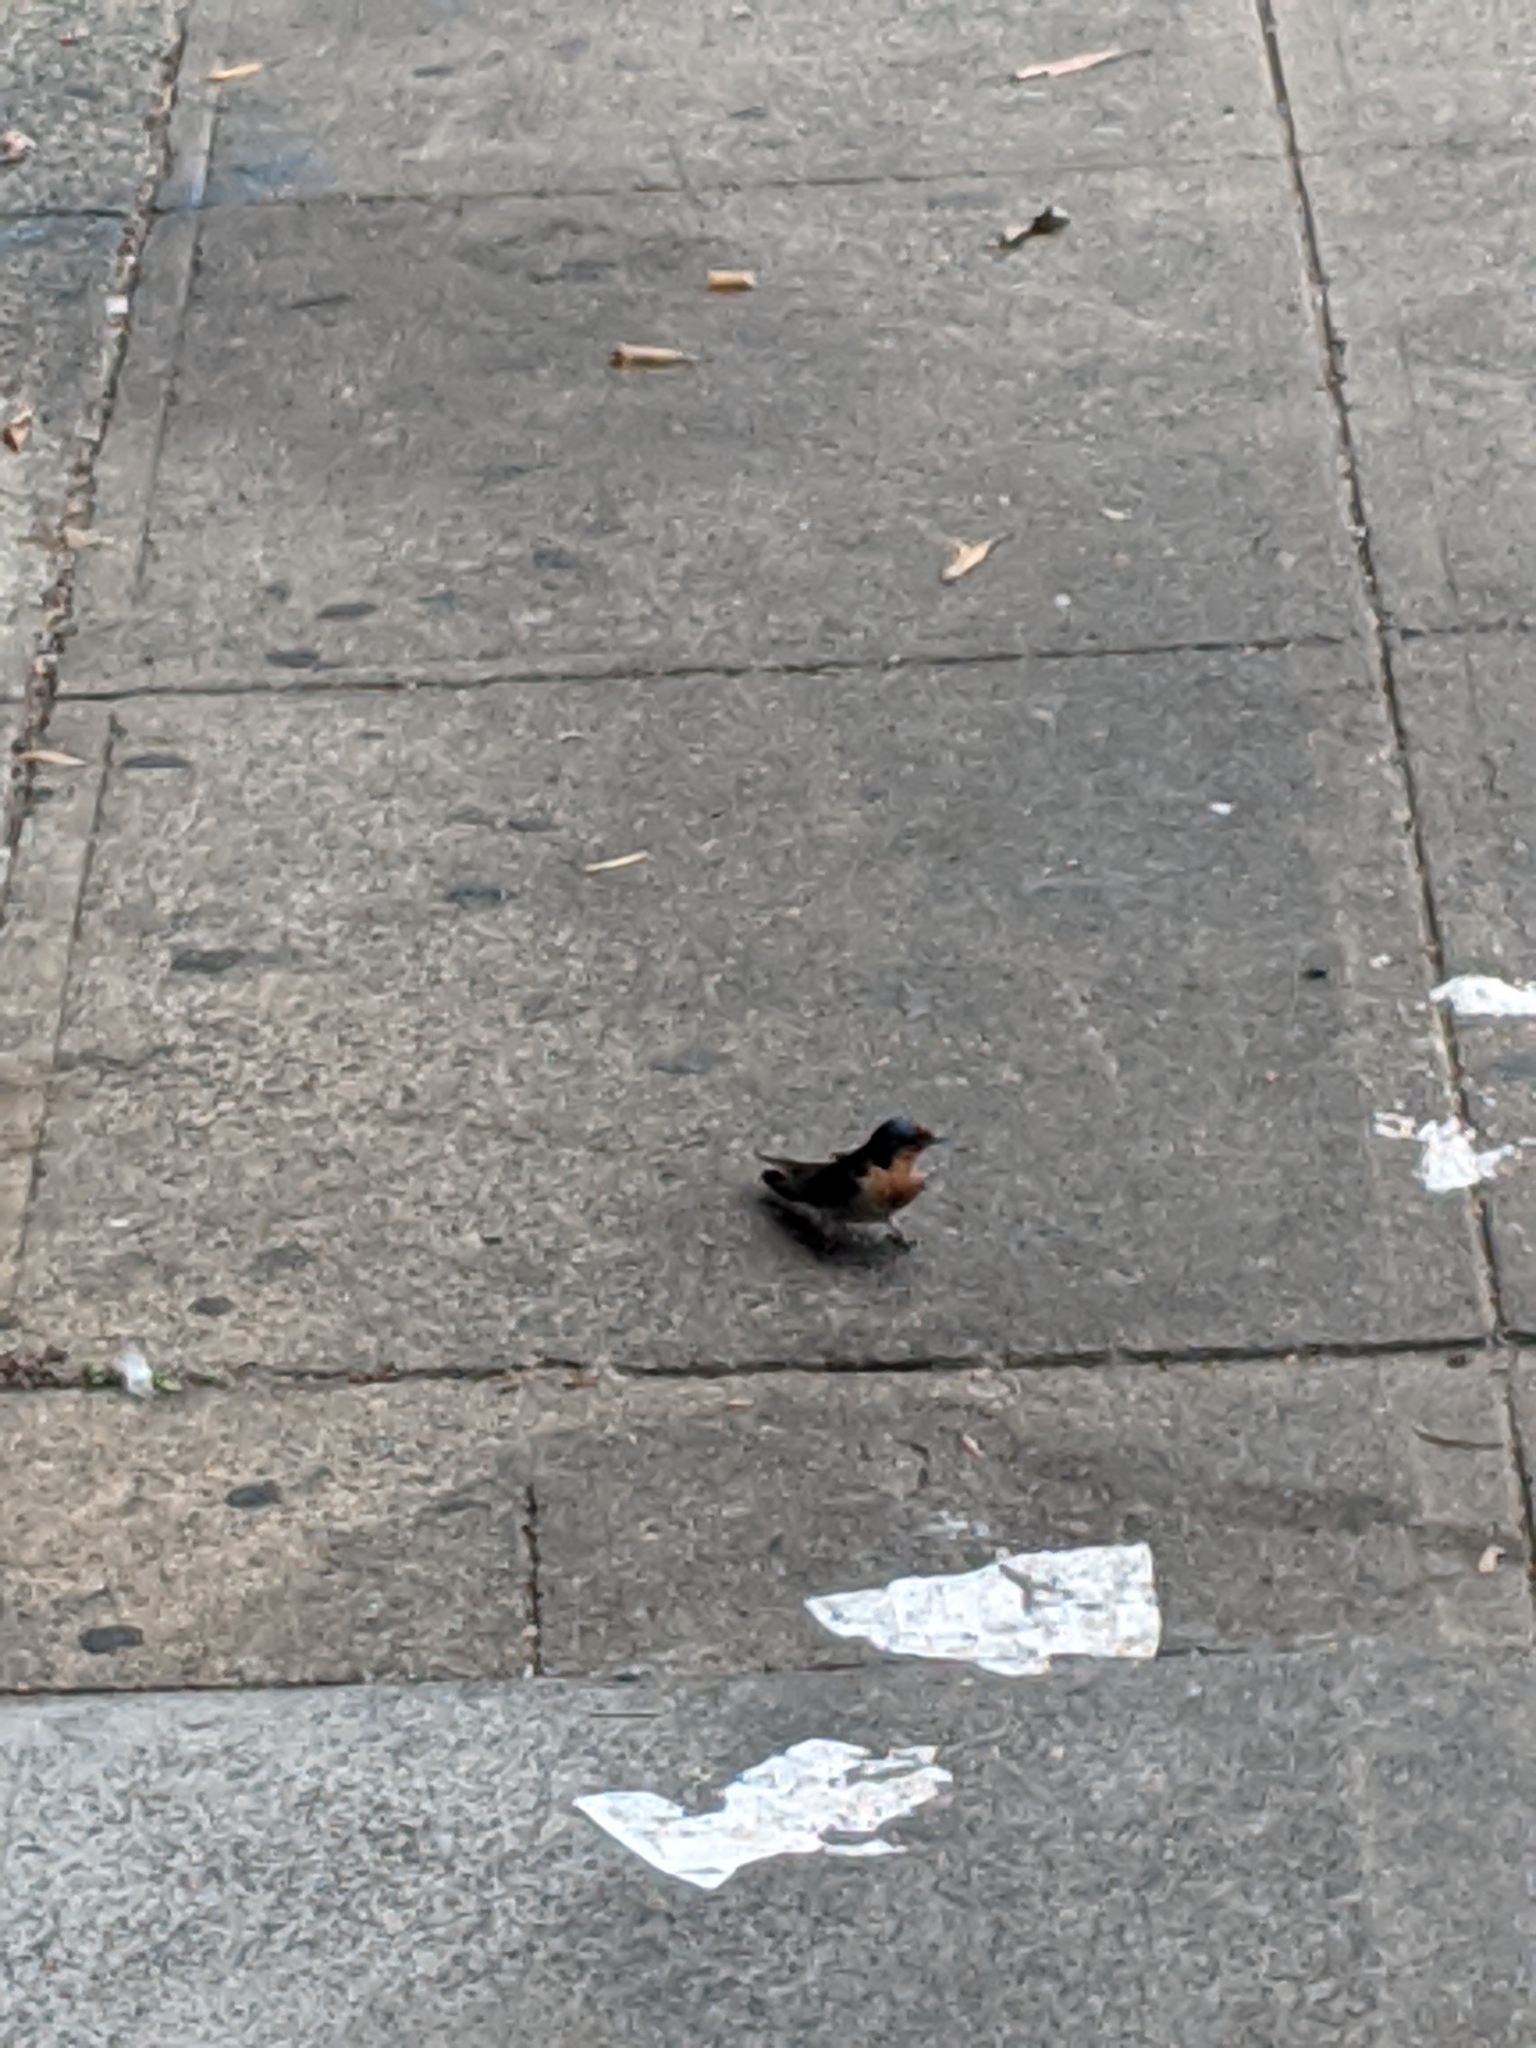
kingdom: Animalia
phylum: Chordata
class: Aves
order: Passeriformes
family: Hirundinidae
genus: Hirundo
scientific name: Hirundo neoxena
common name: Welcome swallow
